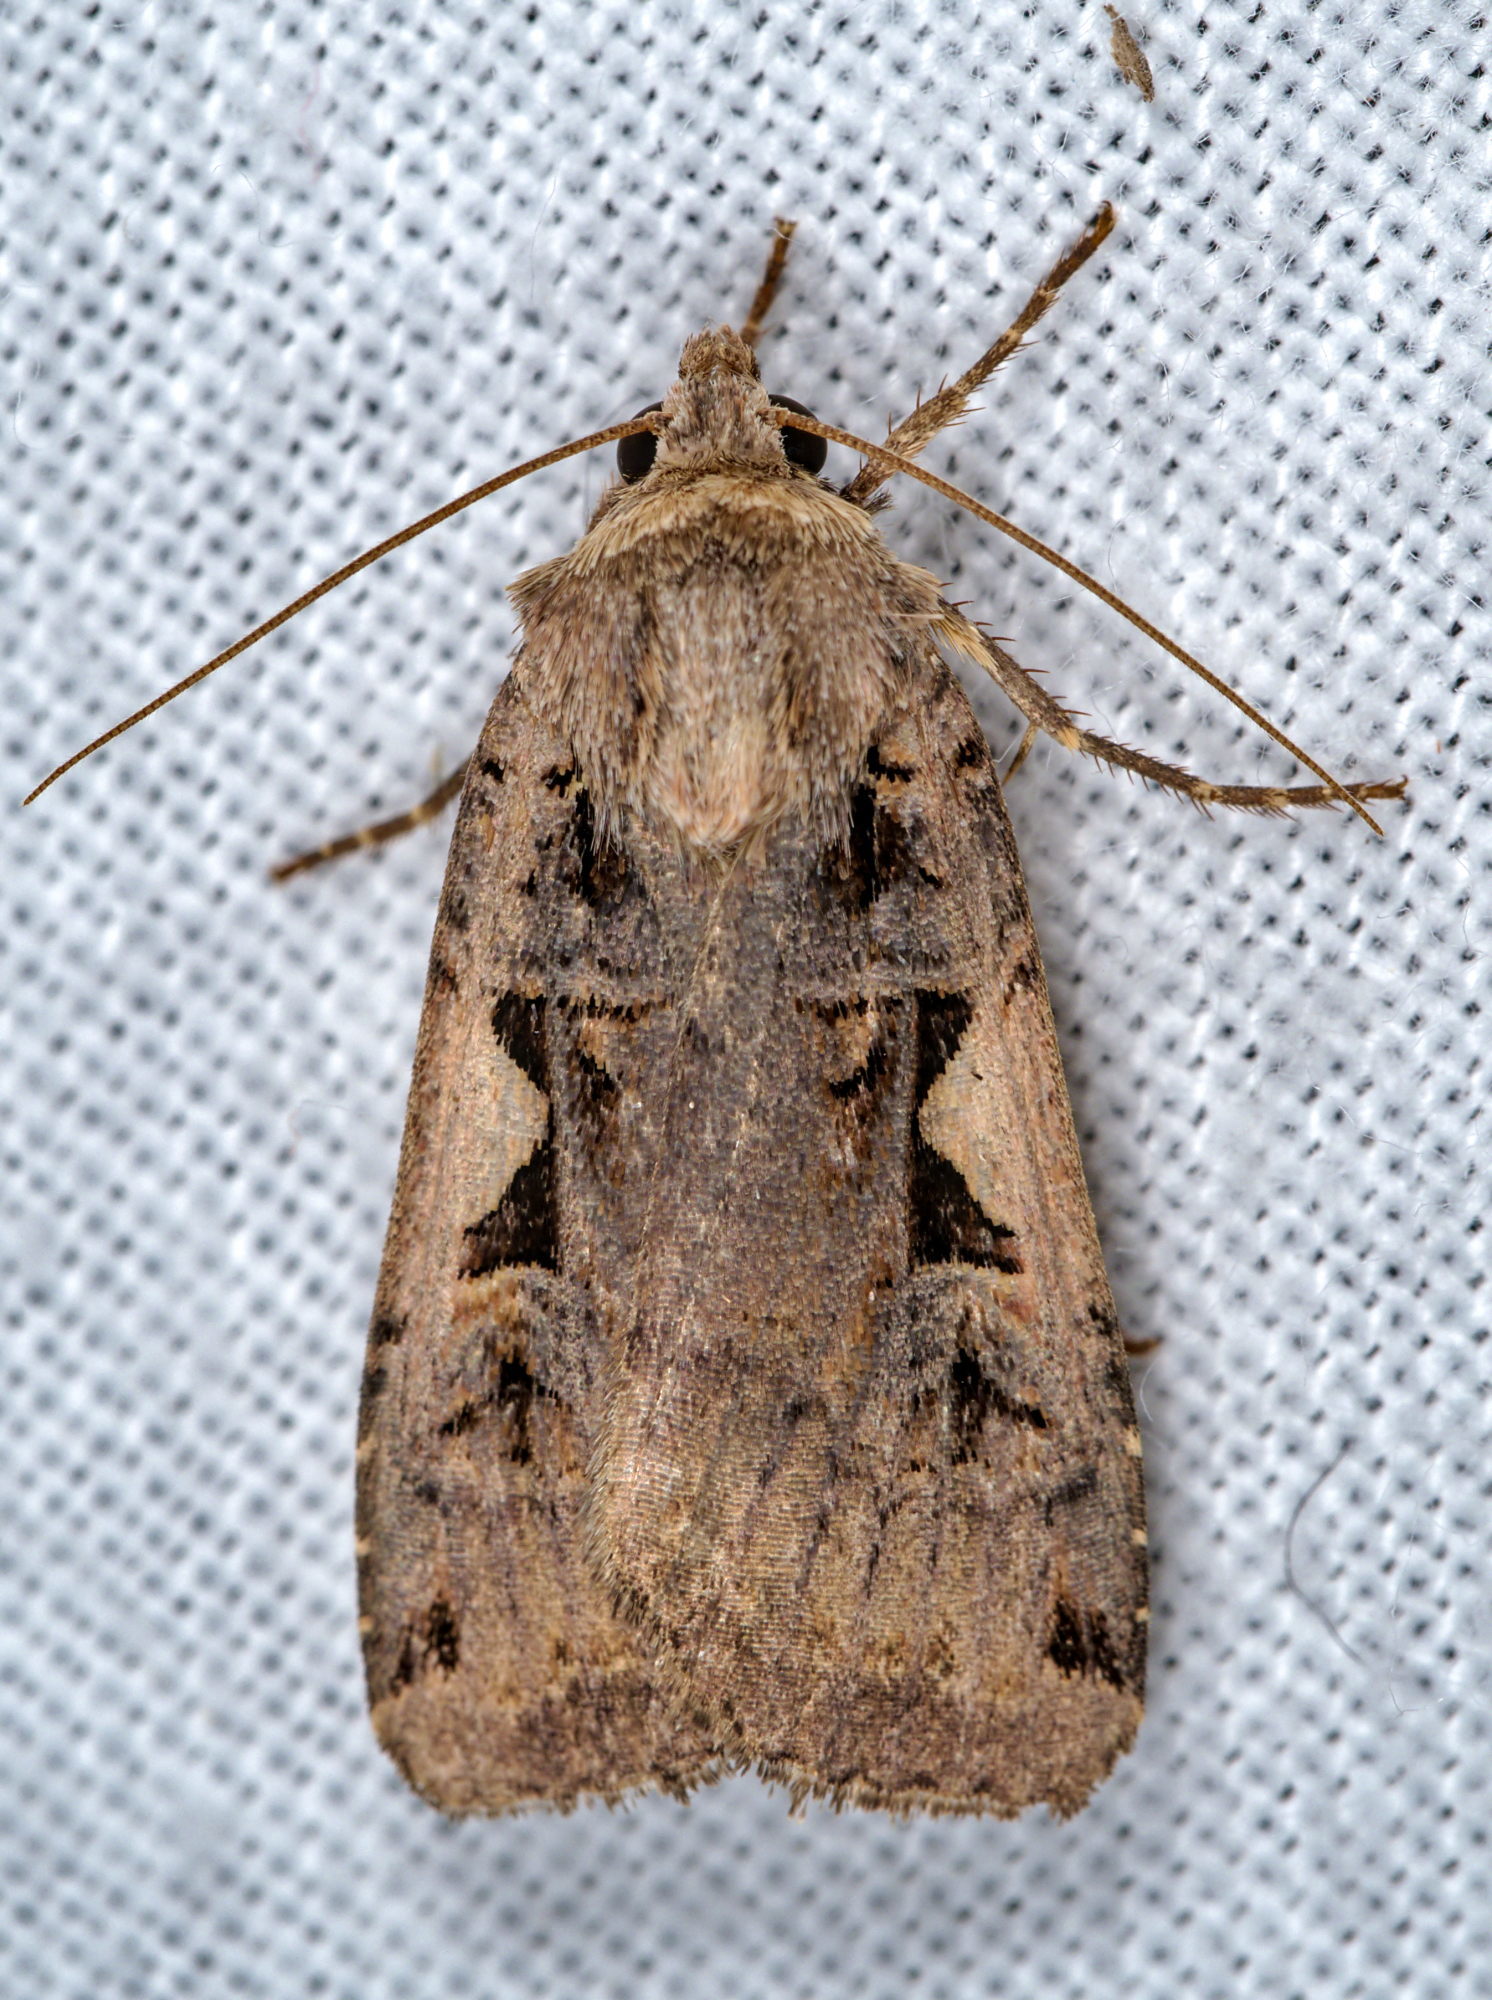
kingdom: Animalia
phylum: Arthropoda
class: Insecta
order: Lepidoptera
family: Noctuidae
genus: Xestia
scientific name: Xestia c-nigrum
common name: Setaceous hebrew character
